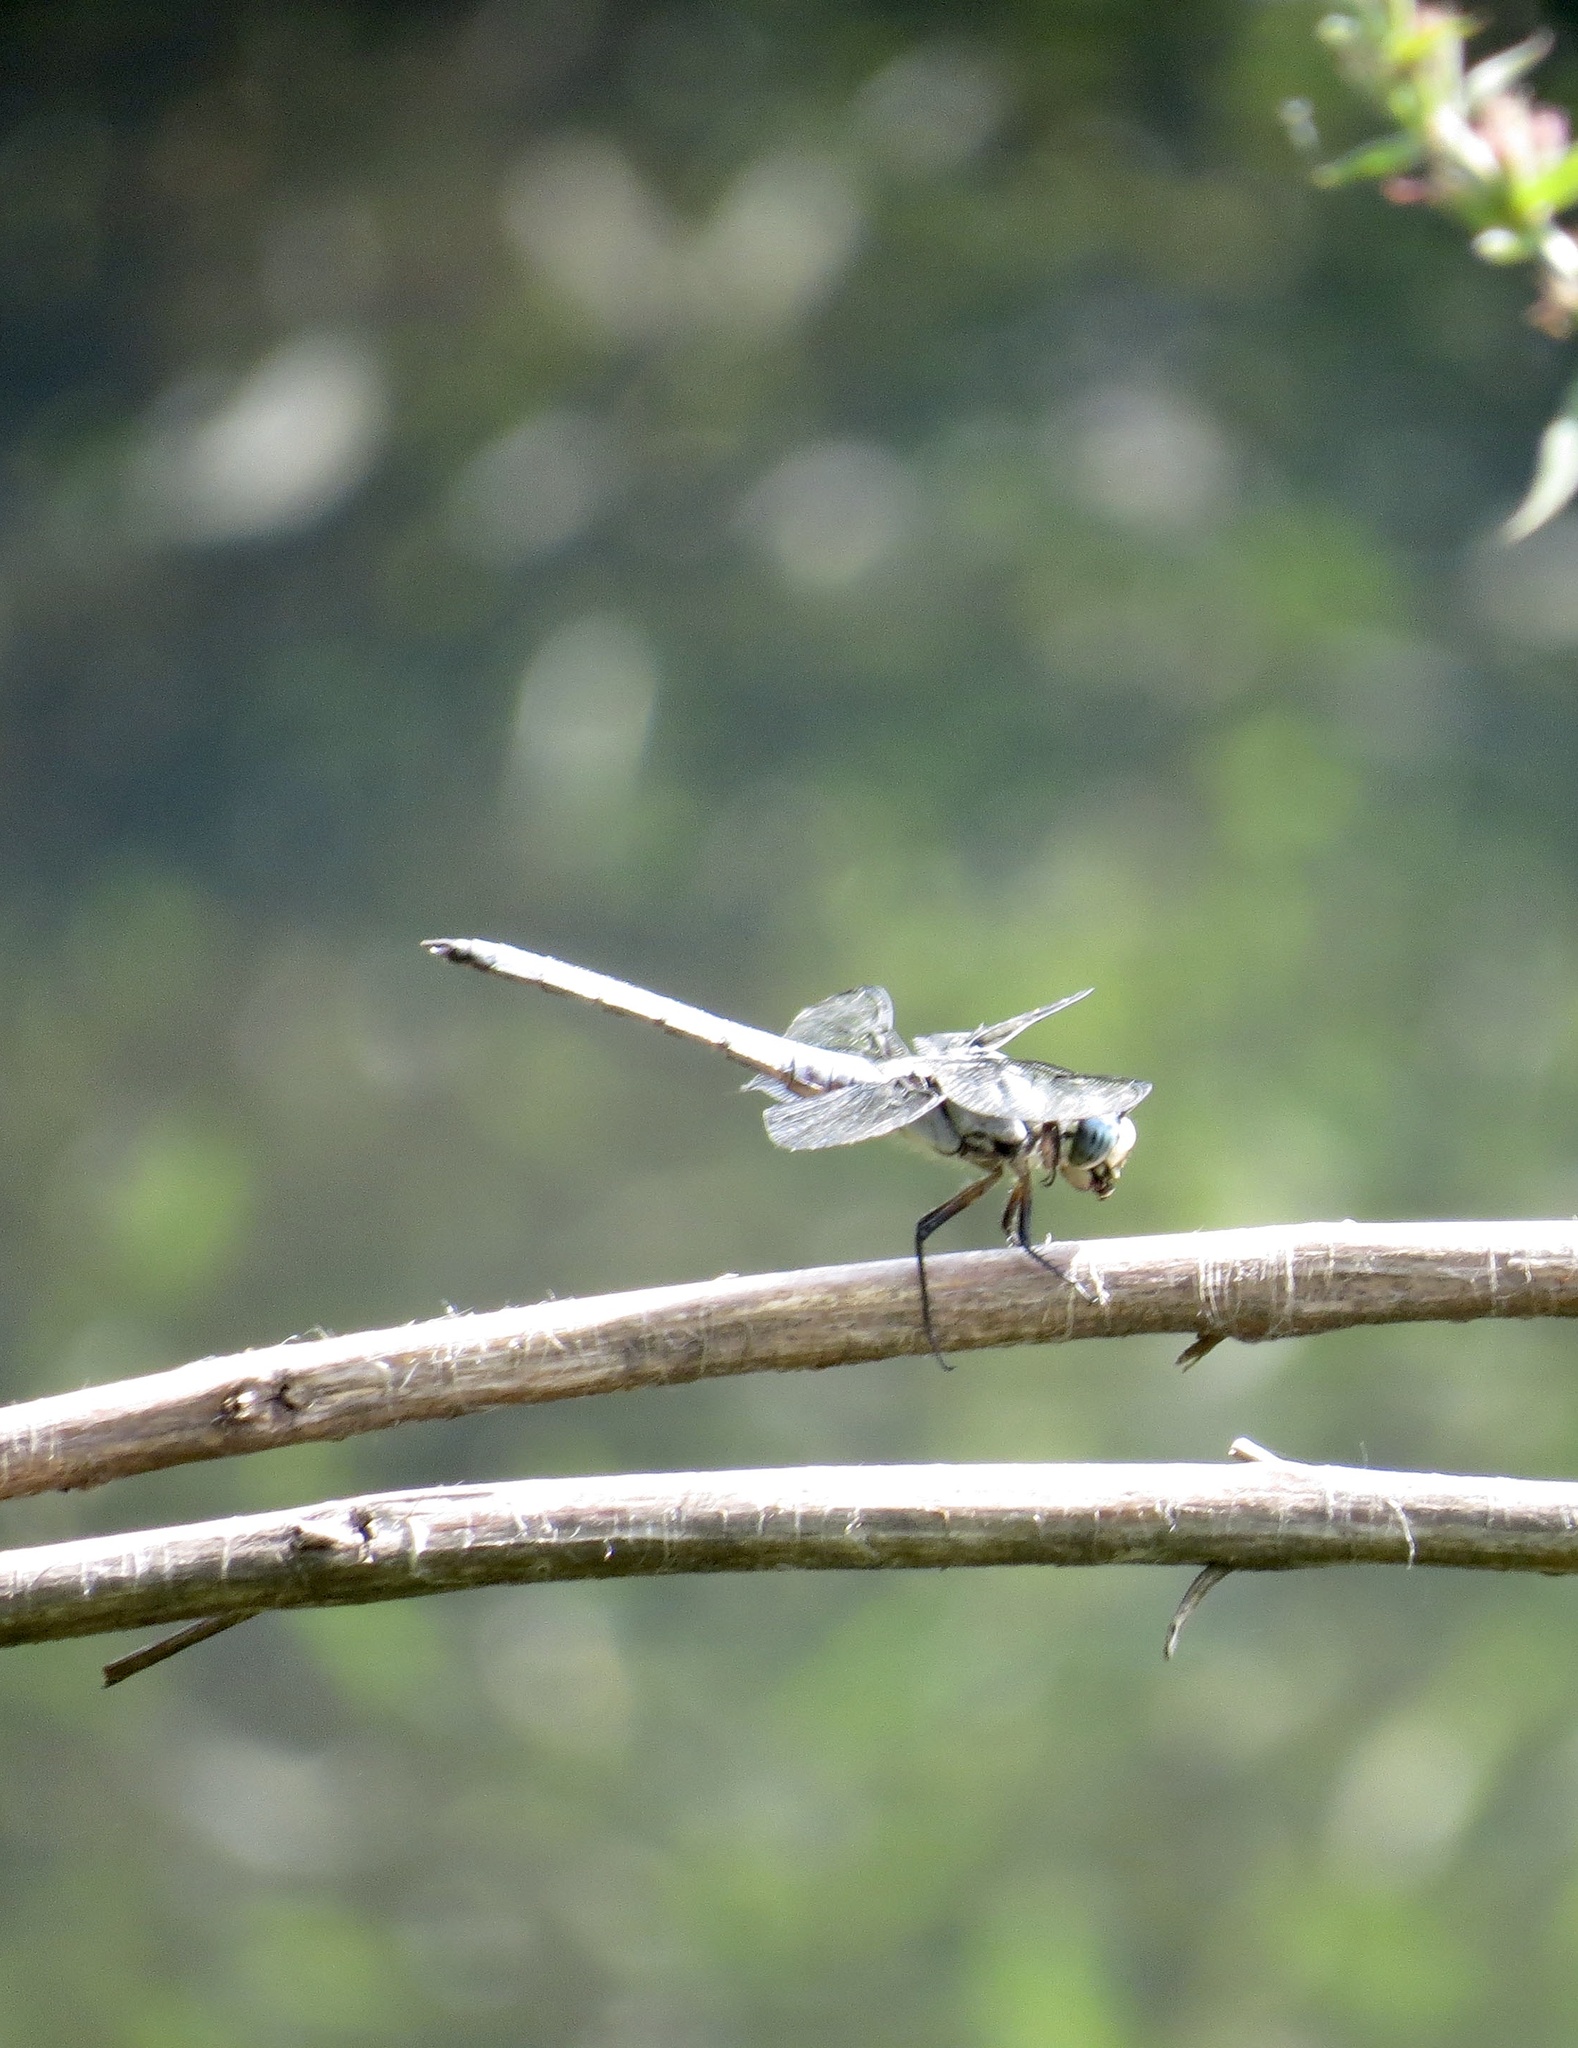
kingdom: Animalia
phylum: Arthropoda
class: Insecta
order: Odonata
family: Libellulidae
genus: Libellula
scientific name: Libellula vibrans
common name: Great blue skimmer
